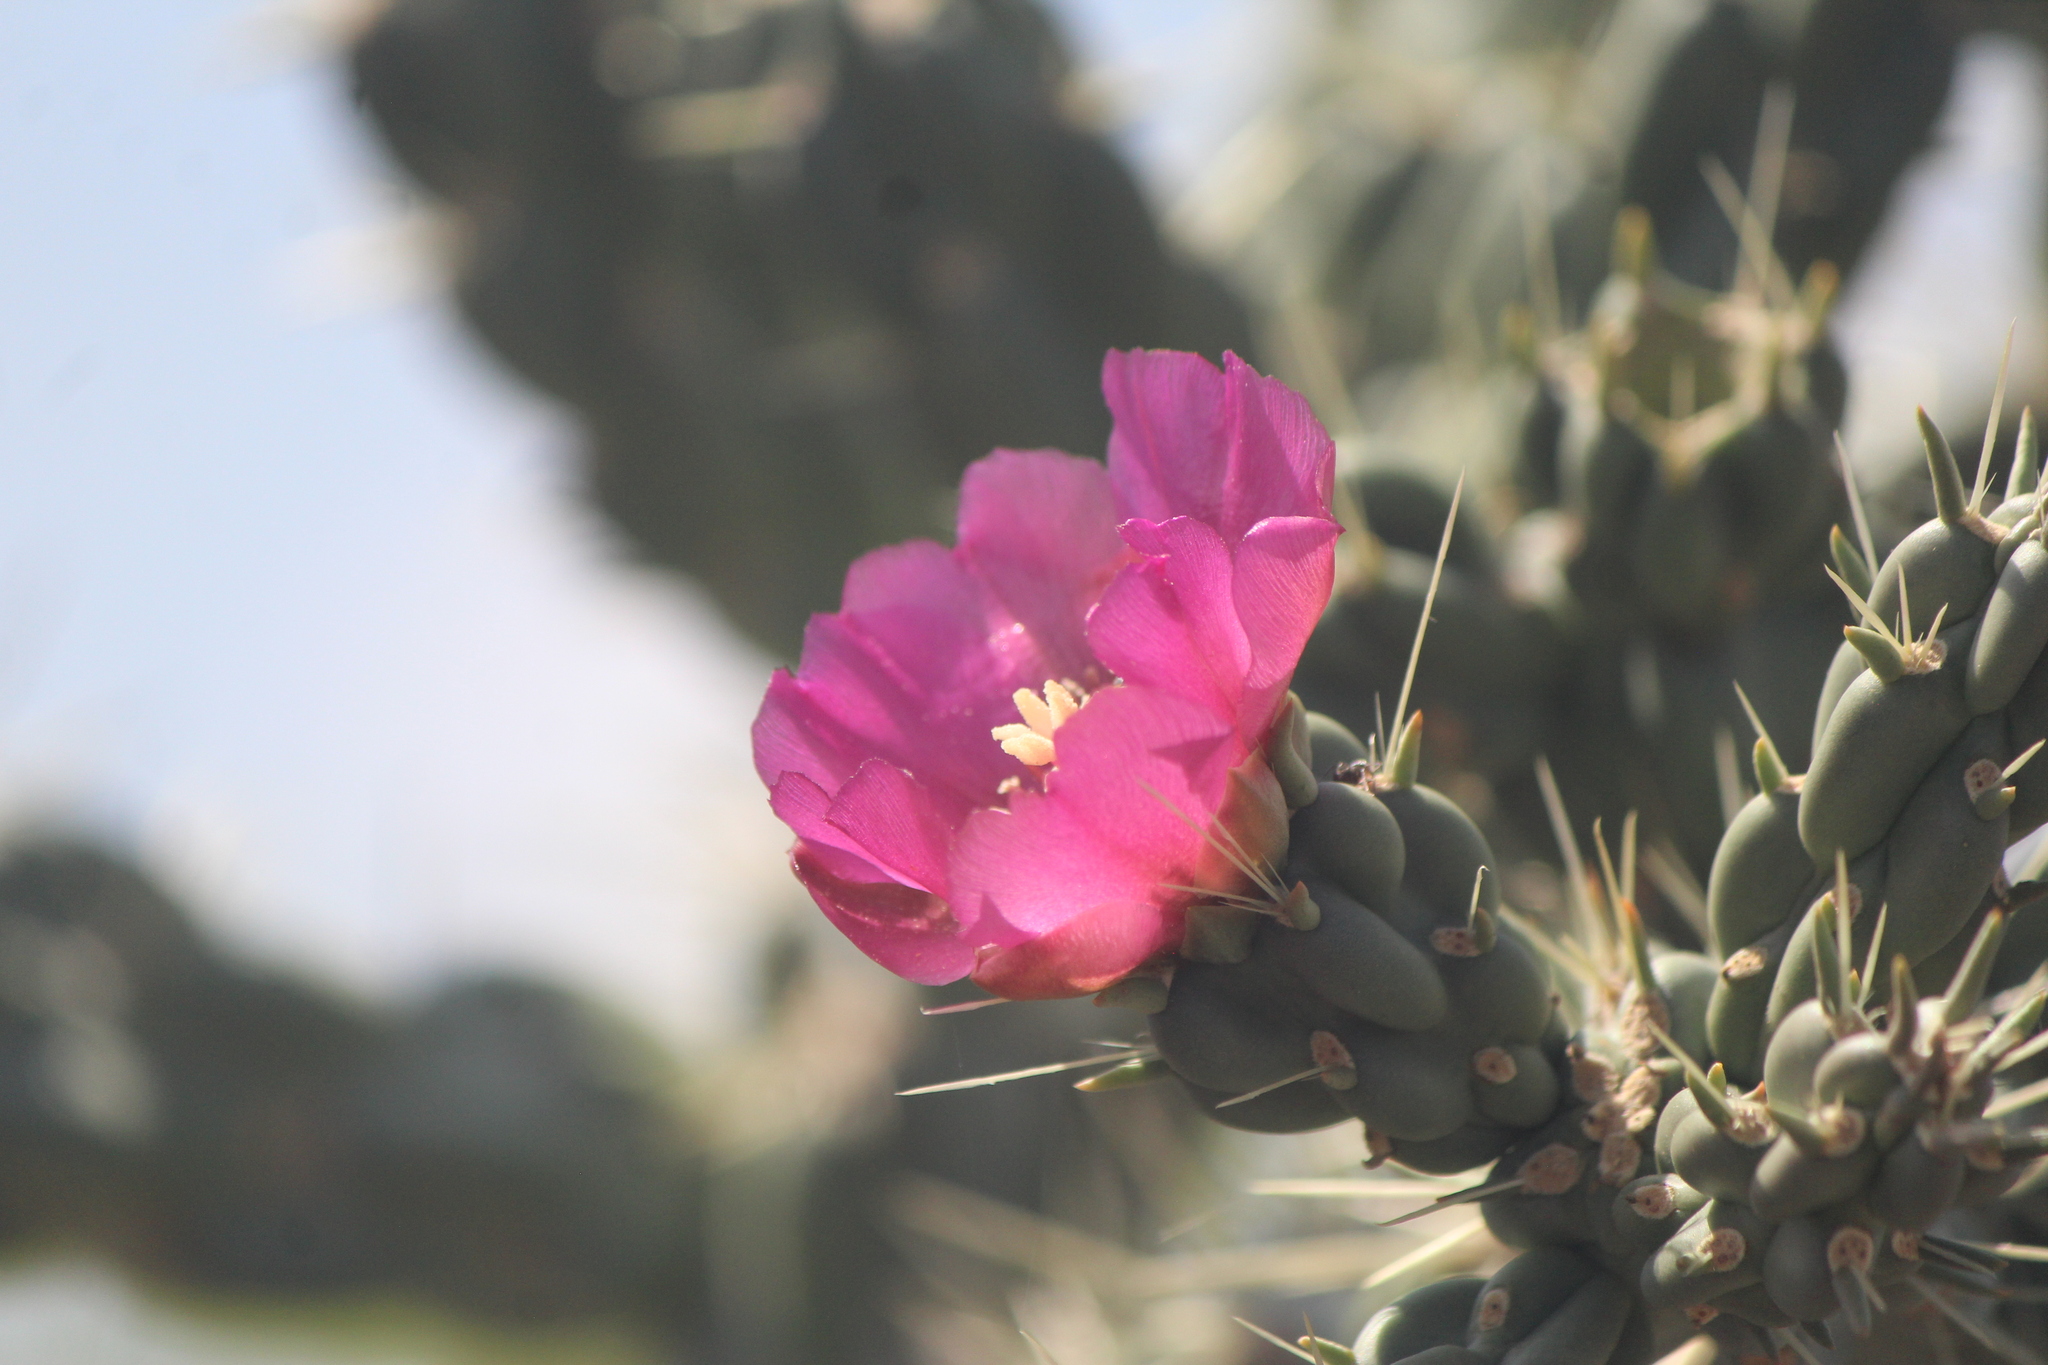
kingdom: Plantae
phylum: Tracheophyta
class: Magnoliopsida
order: Caryophyllales
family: Cactaceae
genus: Cylindropuntia
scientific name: Cylindropuntia imbricata
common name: Candelabrum cactus
